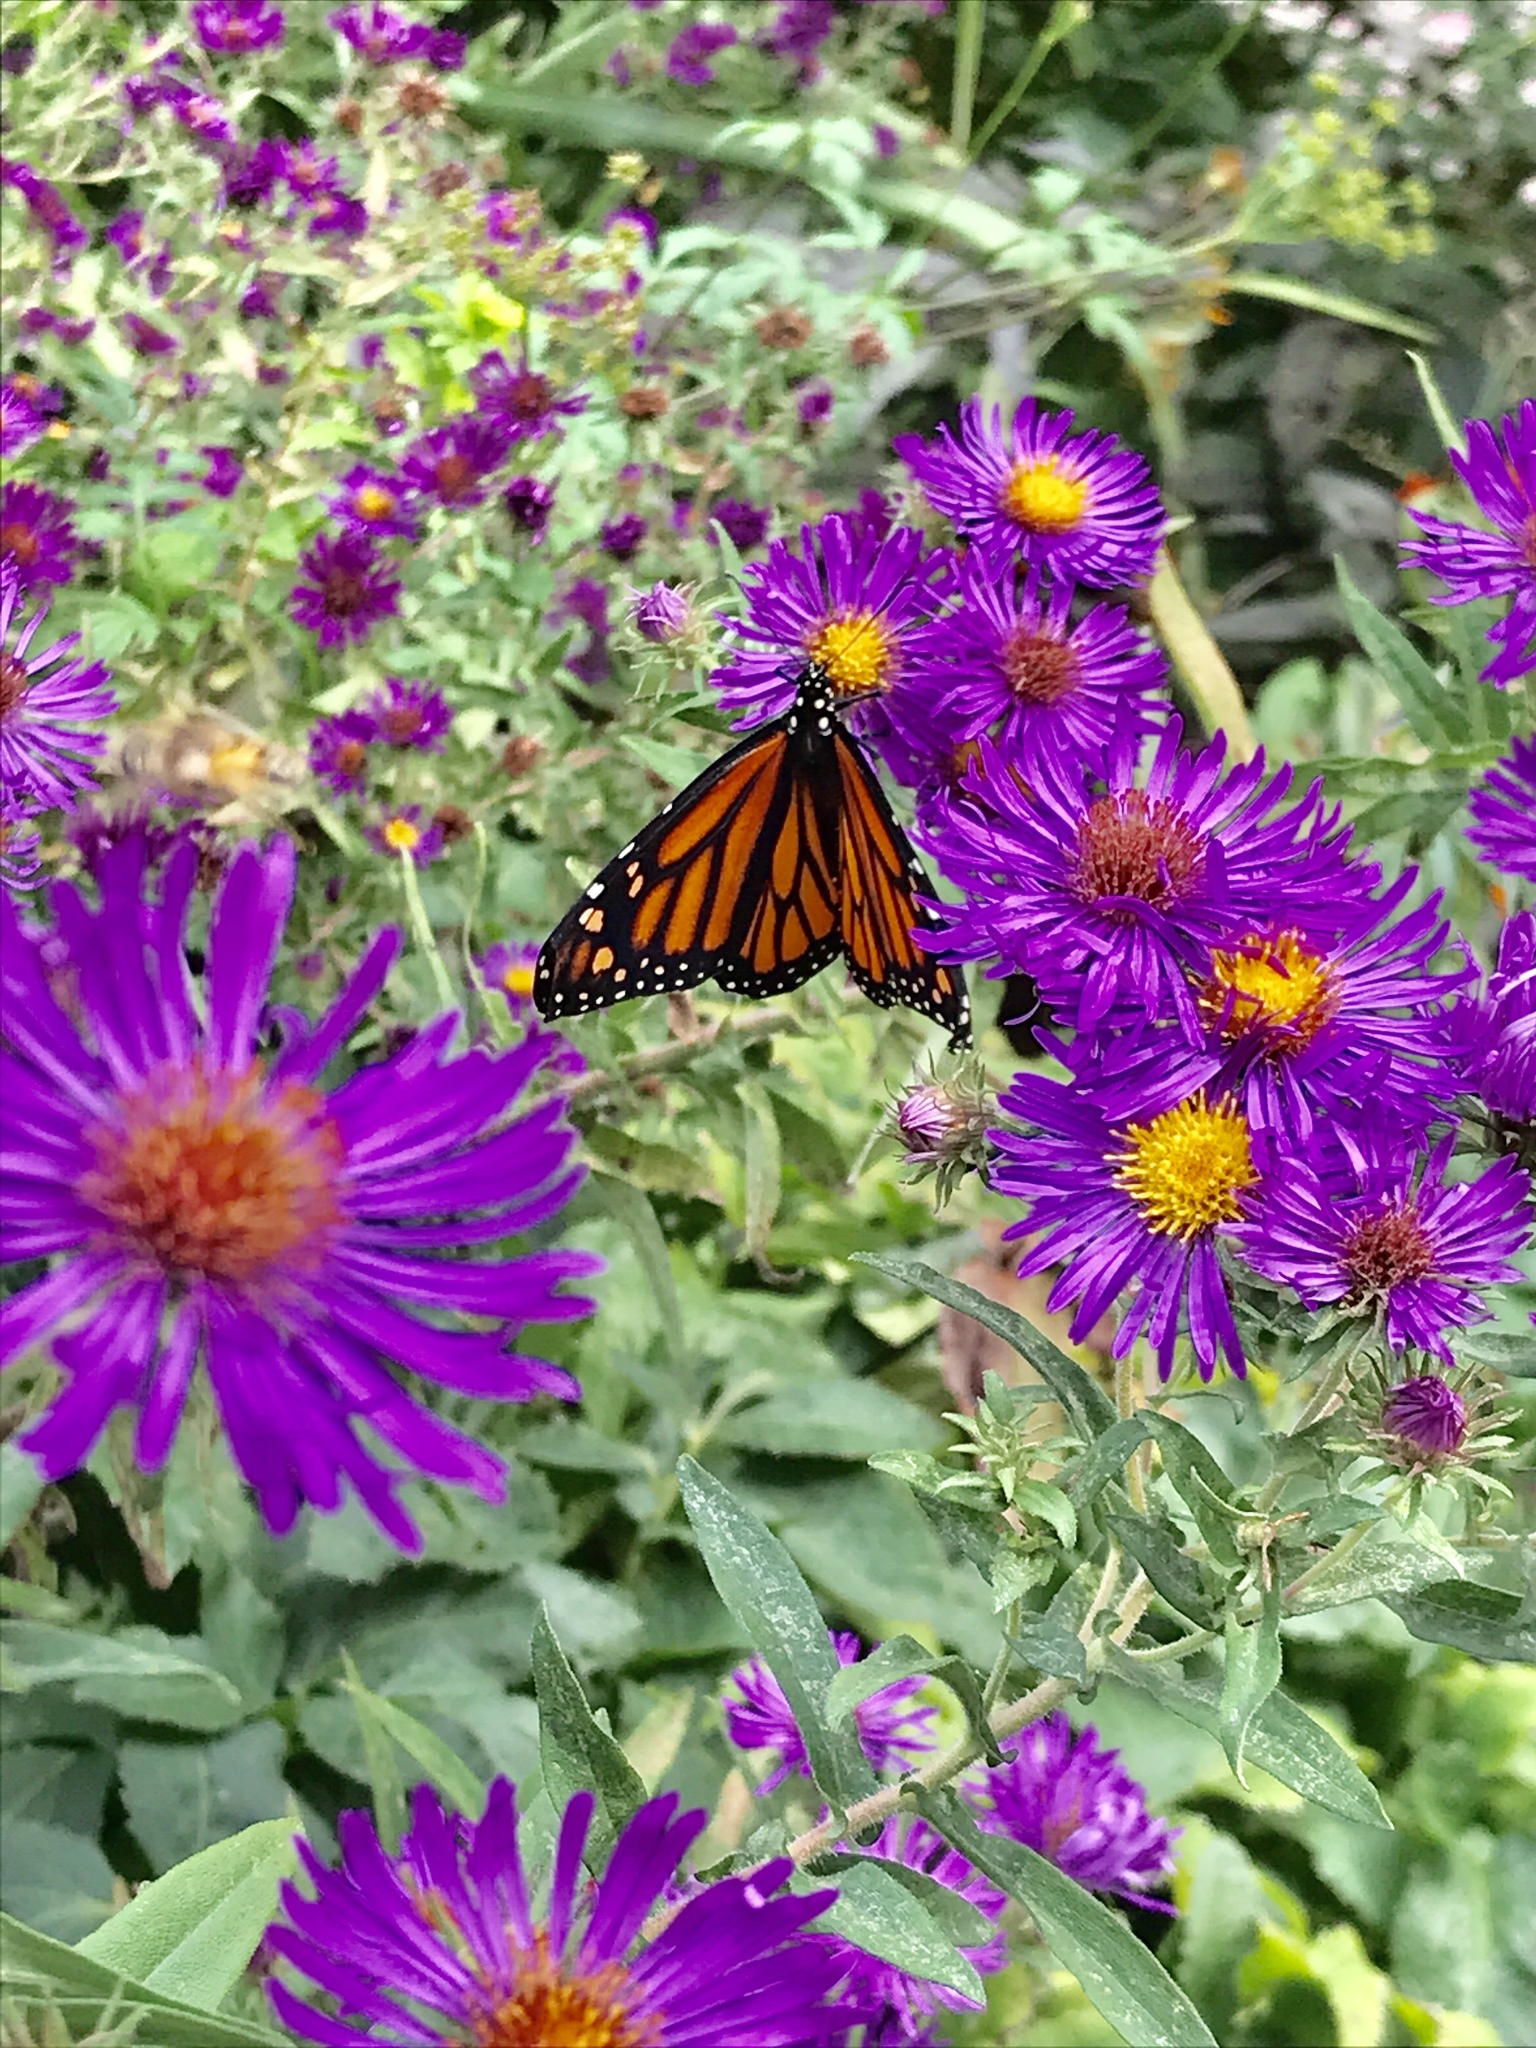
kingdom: Animalia
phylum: Arthropoda
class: Insecta
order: Lepidoptera
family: Nymphalidae
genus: Danaus
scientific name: Danaus plexippus
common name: Monarch
